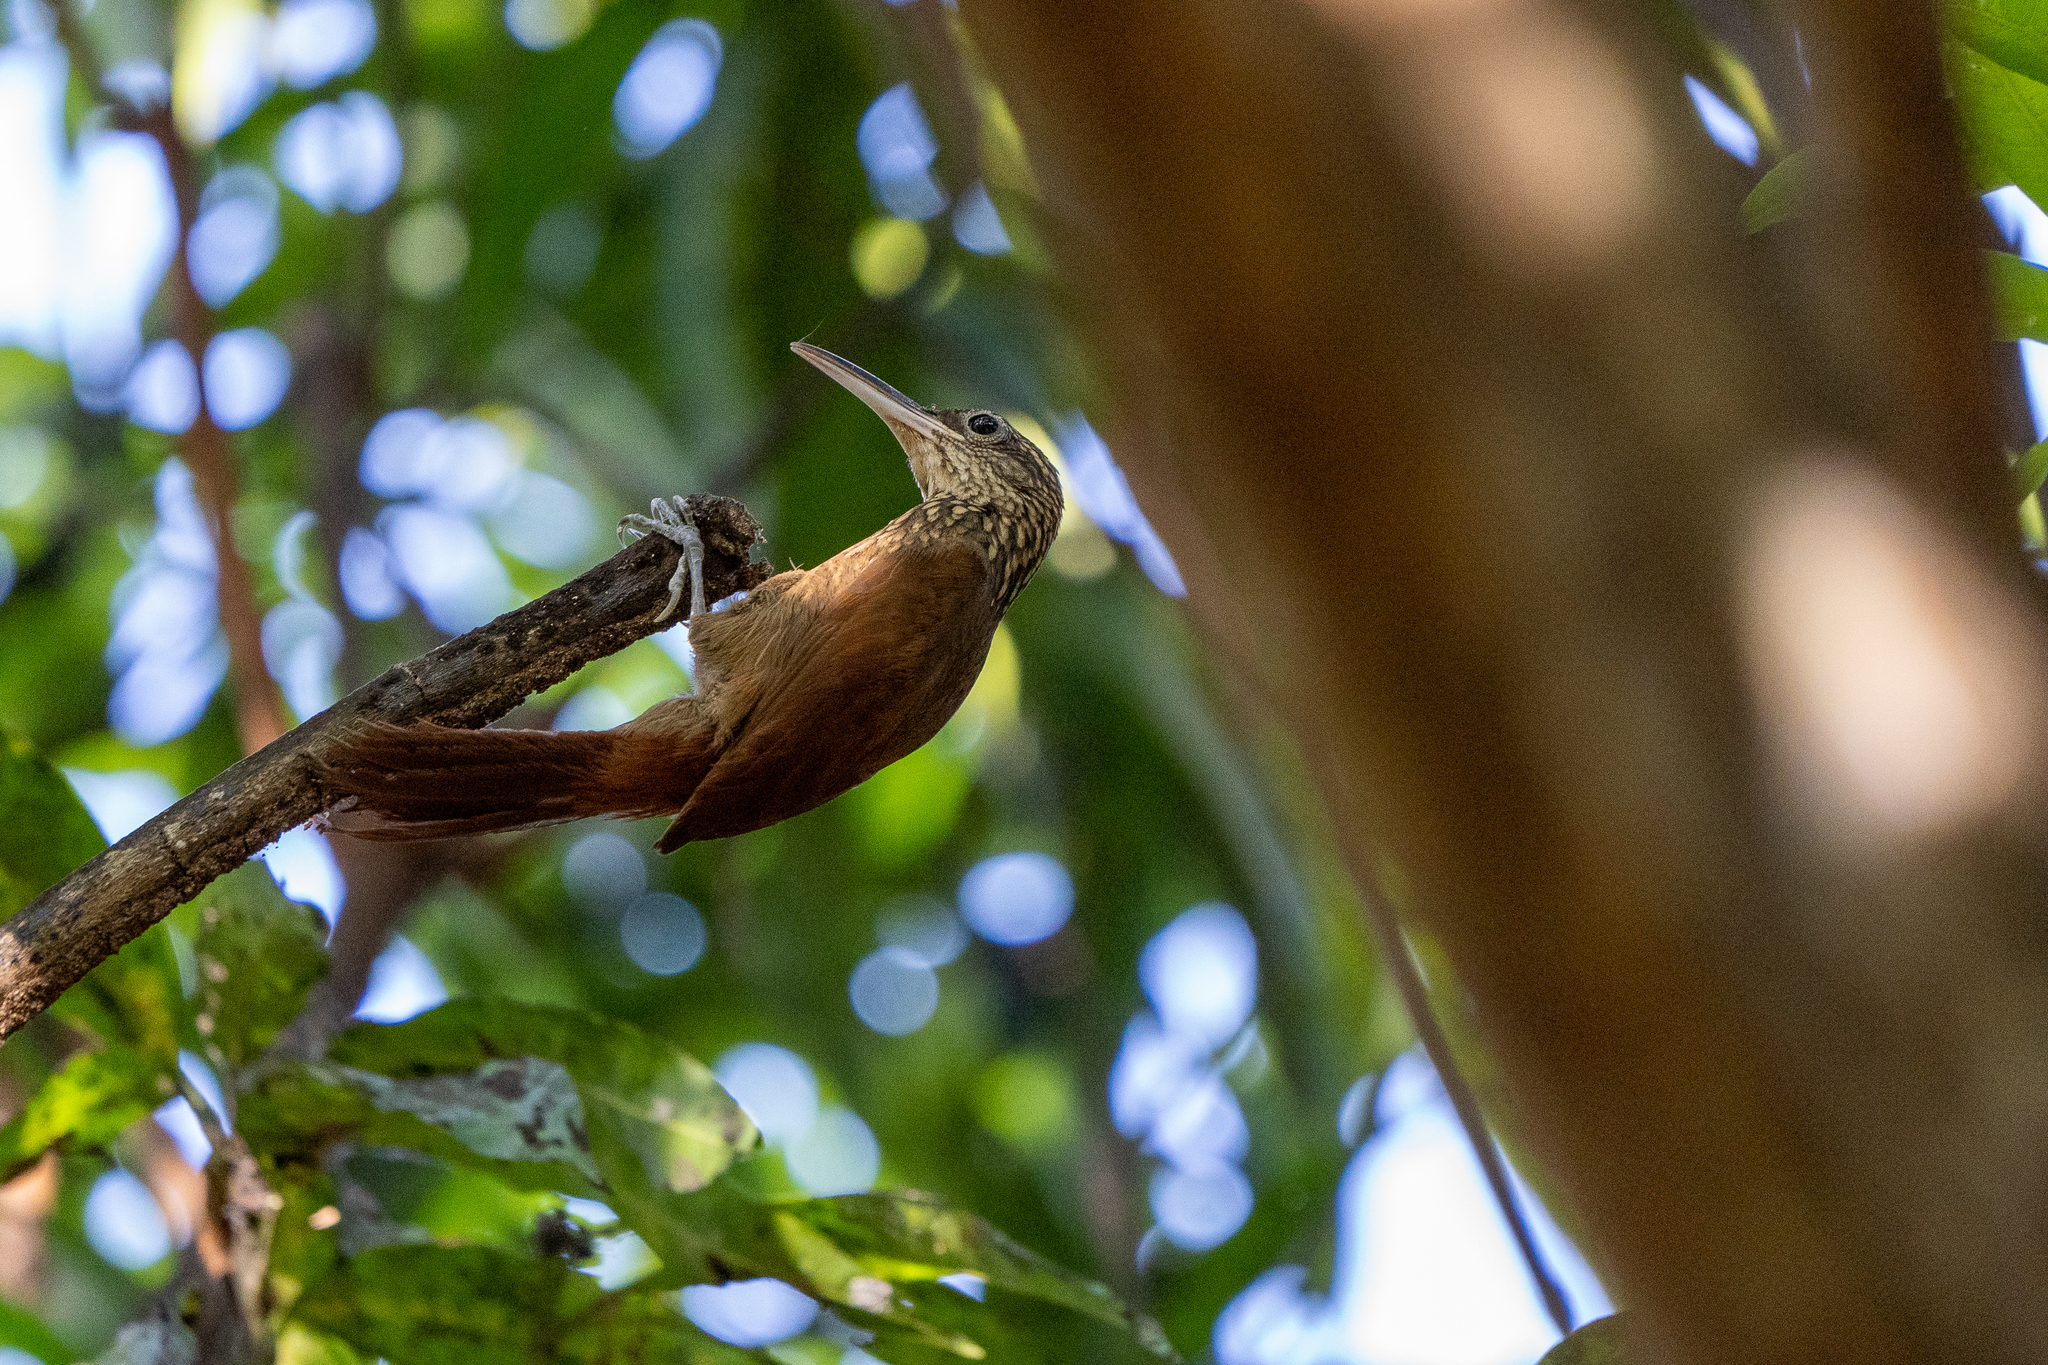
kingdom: Animalia
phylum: Chordata
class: Aves
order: Passeriformes
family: Furnariidae
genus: Xiphorhynchus
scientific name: Xiphorhynchus susurrans
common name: Cocoa woodcreeper
